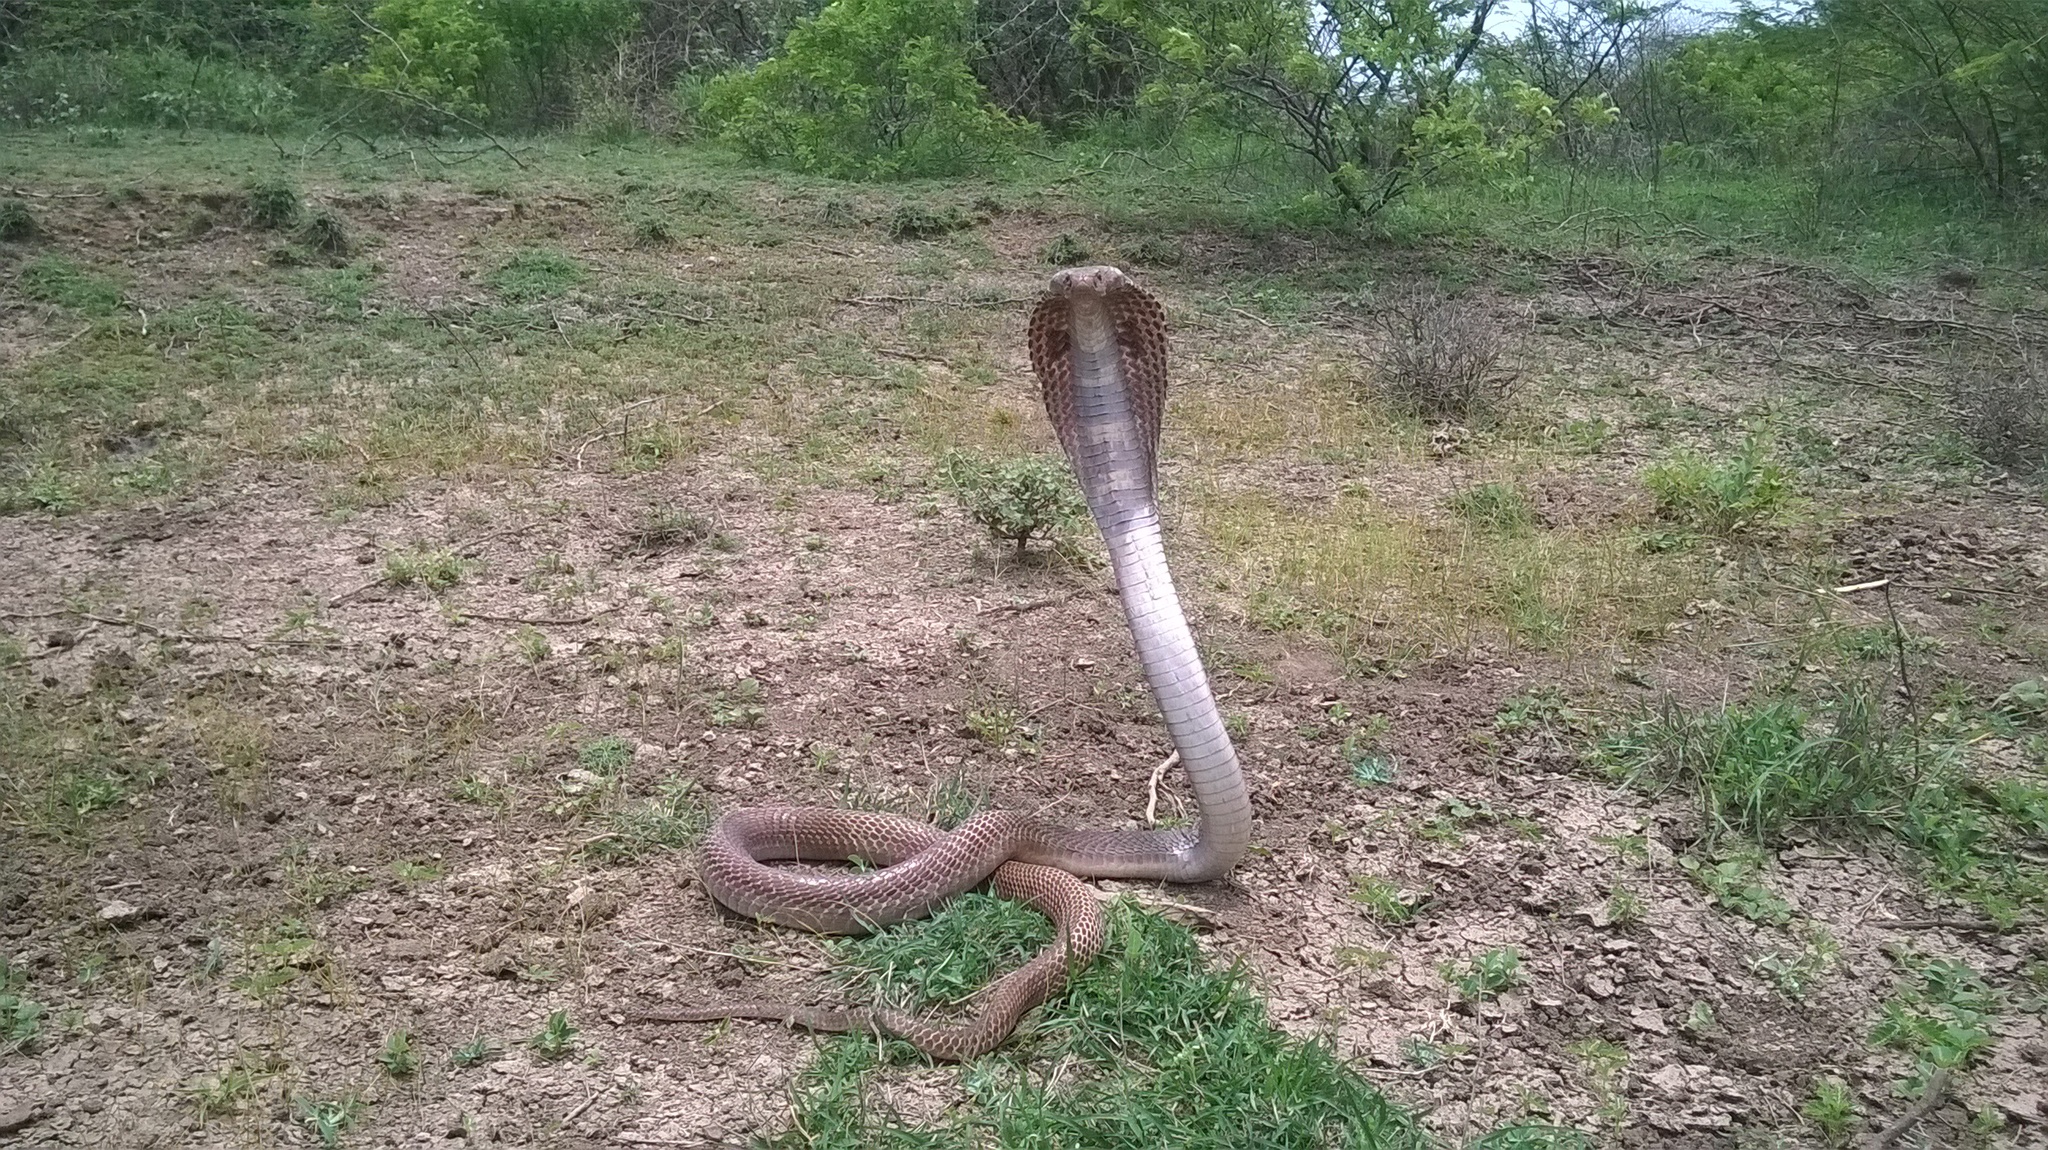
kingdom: Animalia
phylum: Chordata
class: Squamata
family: Elapidae
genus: Naja
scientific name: Naja naja
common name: Indian cobra
